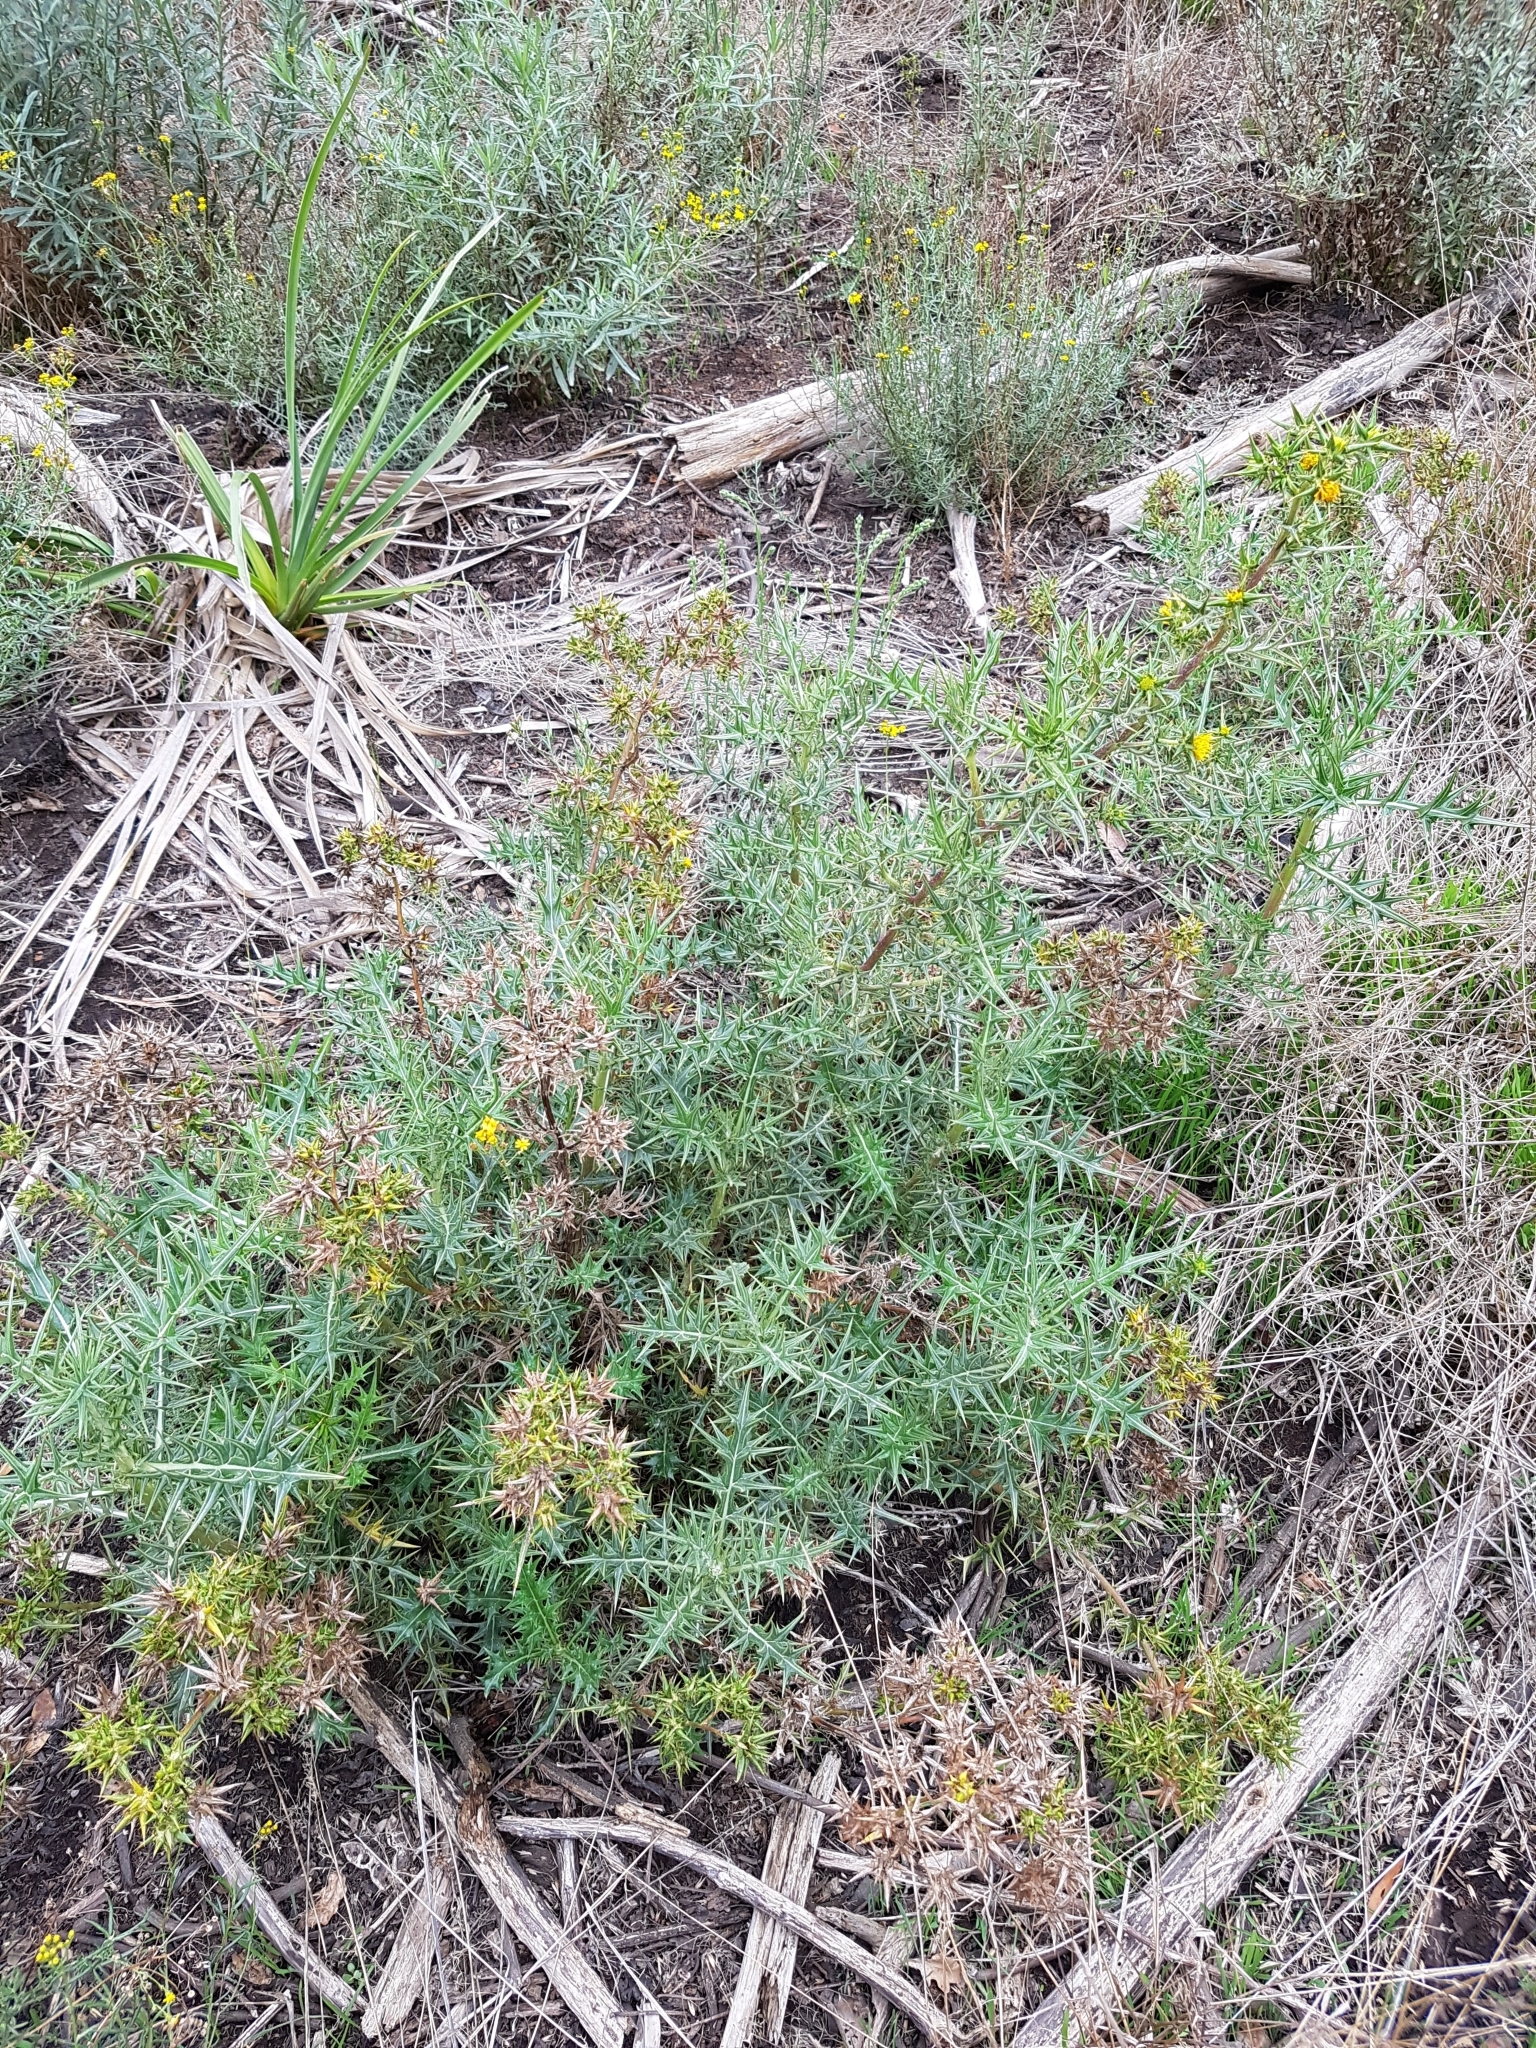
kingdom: Plantae
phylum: Tracheophyta
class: Magnoliopsida
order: Asterales
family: Asteraceae
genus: Berkheya
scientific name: Berkheya rigida
